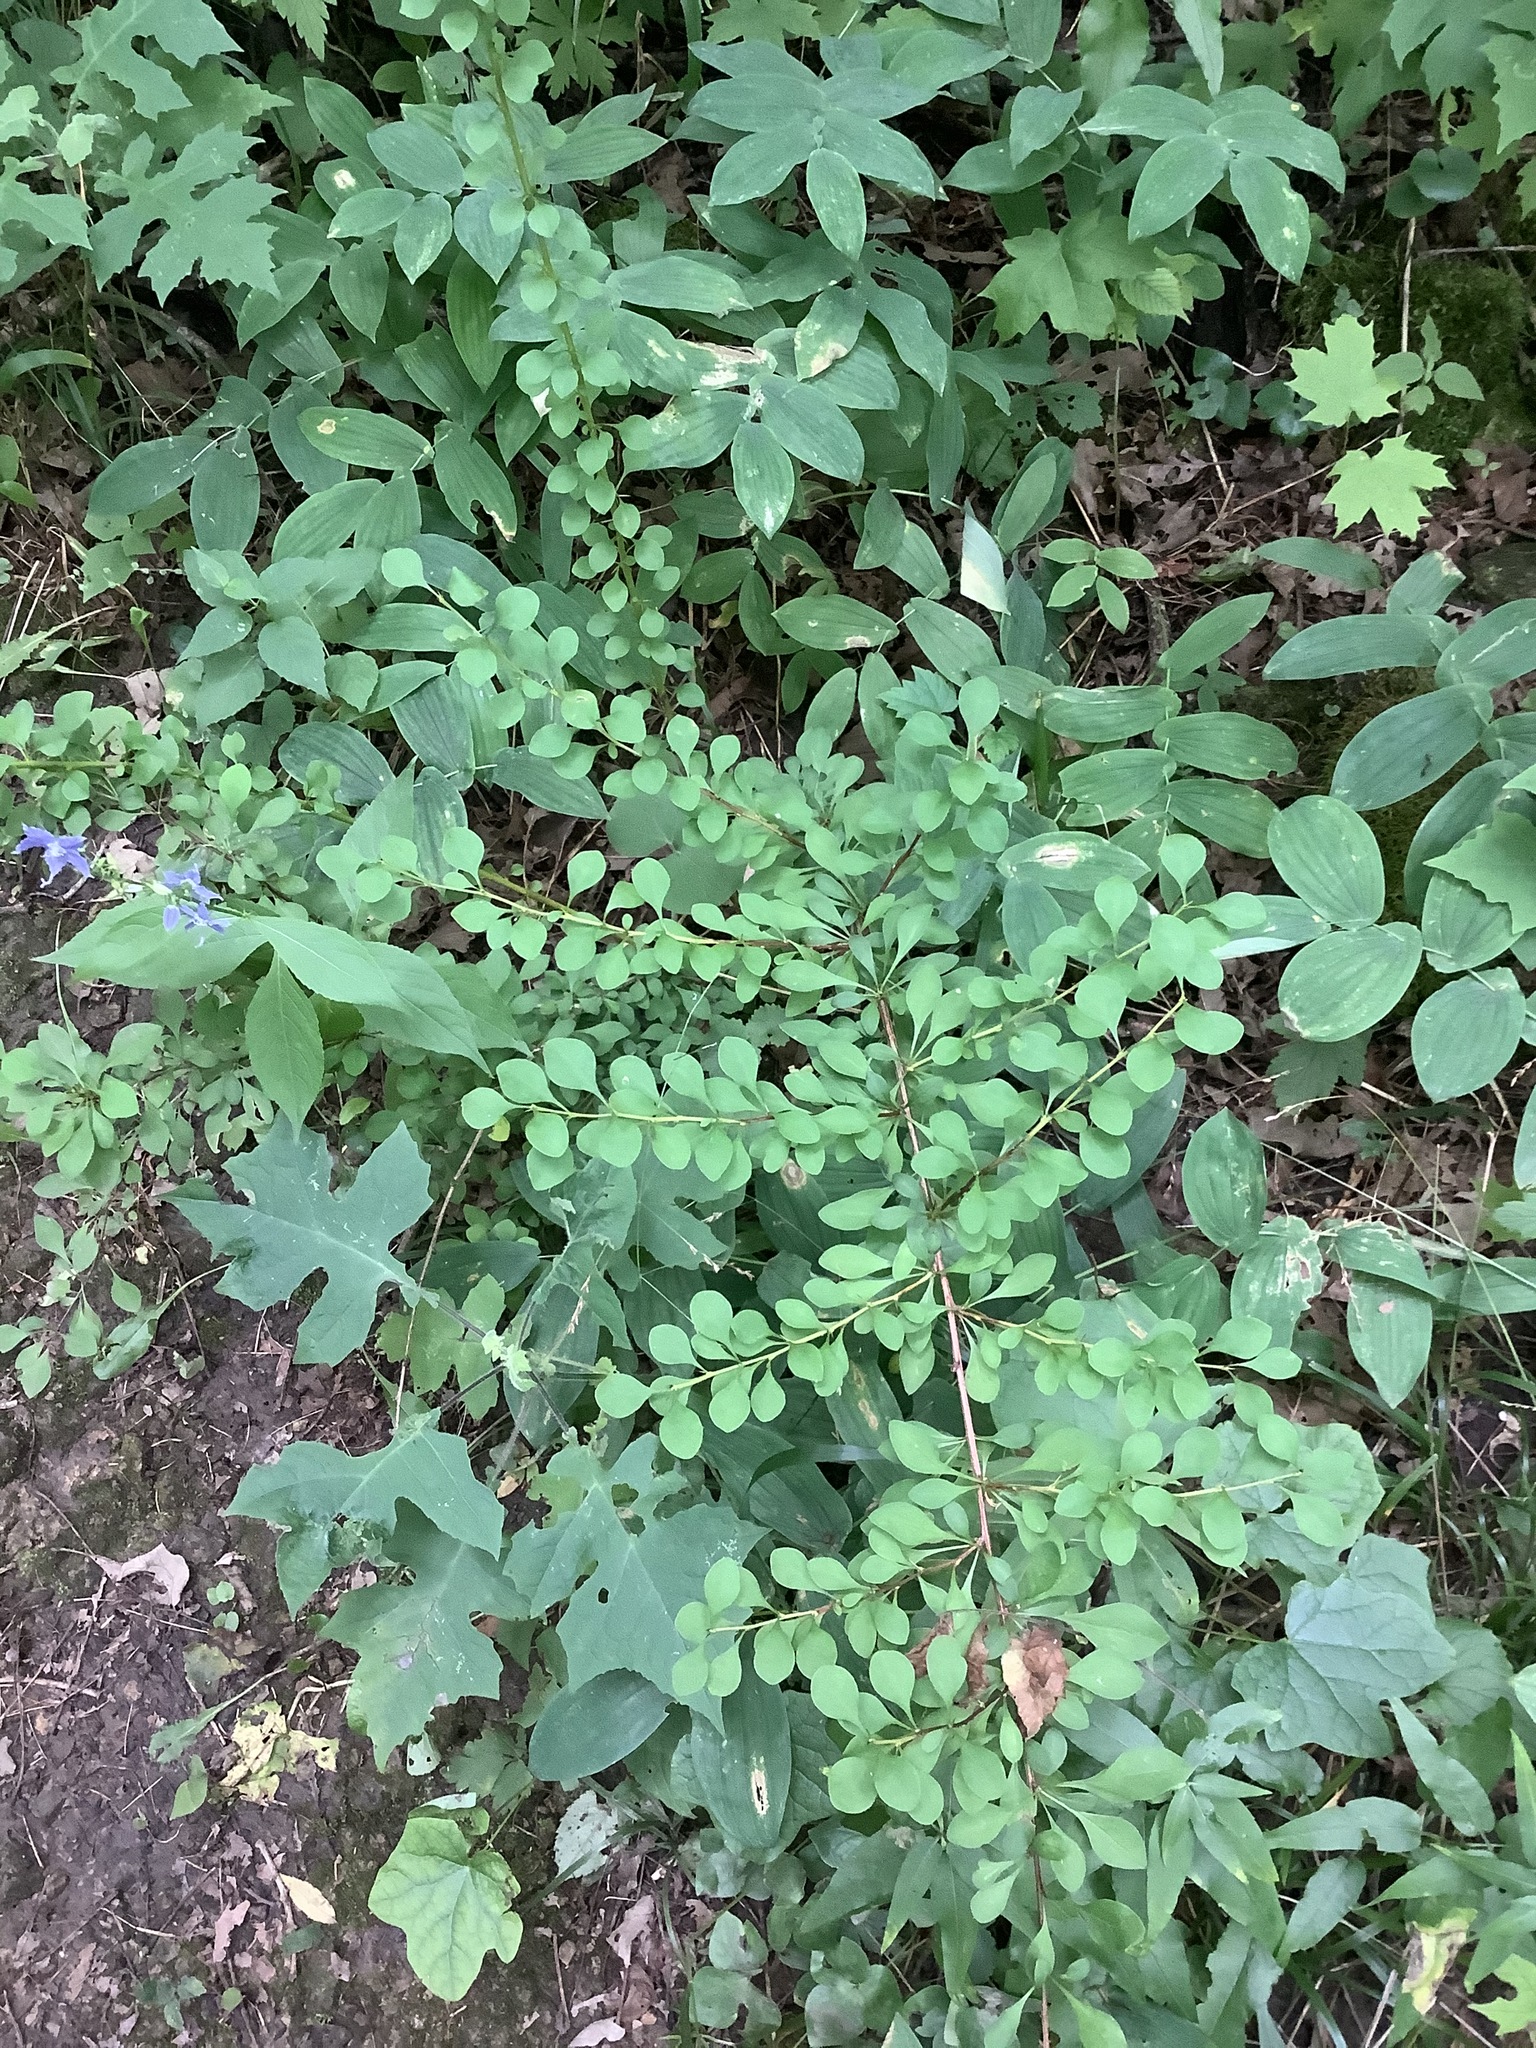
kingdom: Plantae
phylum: Tracheophyta
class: Magnoliopsida
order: Ranunculales
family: Berberidaceae
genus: Berberis
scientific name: Berberis thunbergii
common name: Japanese barberry
